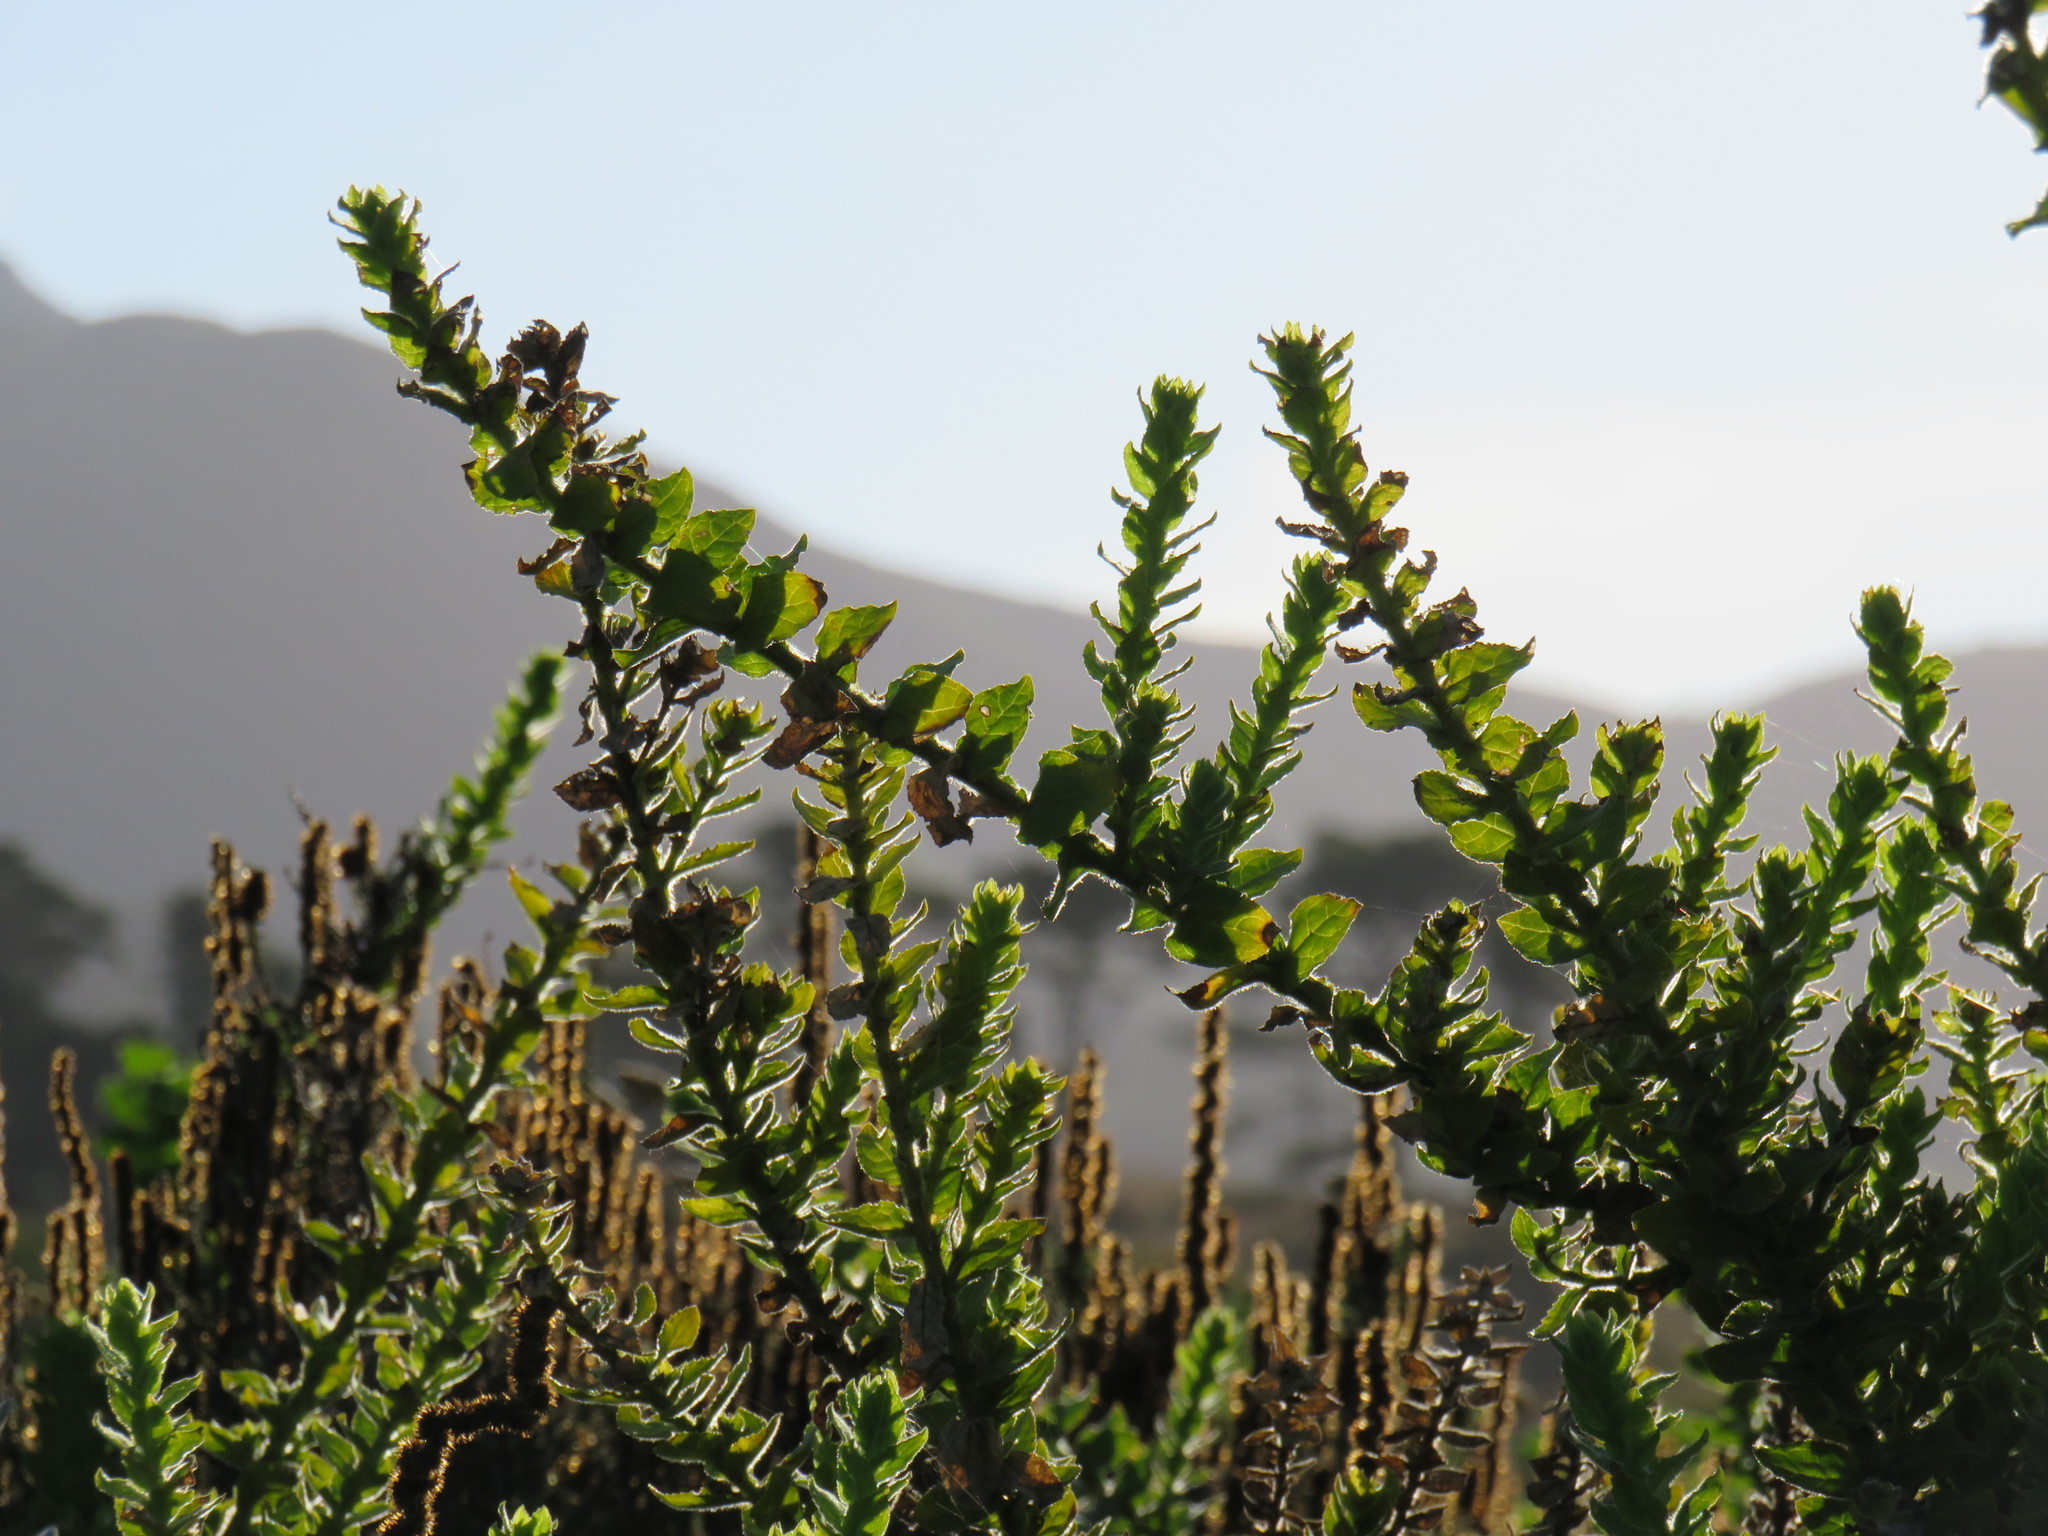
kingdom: Plantae
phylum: Tracheophyta
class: Magnoliopsida
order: Lamiales
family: Scrophulariaceae
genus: Oftia
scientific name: Oftia africana
